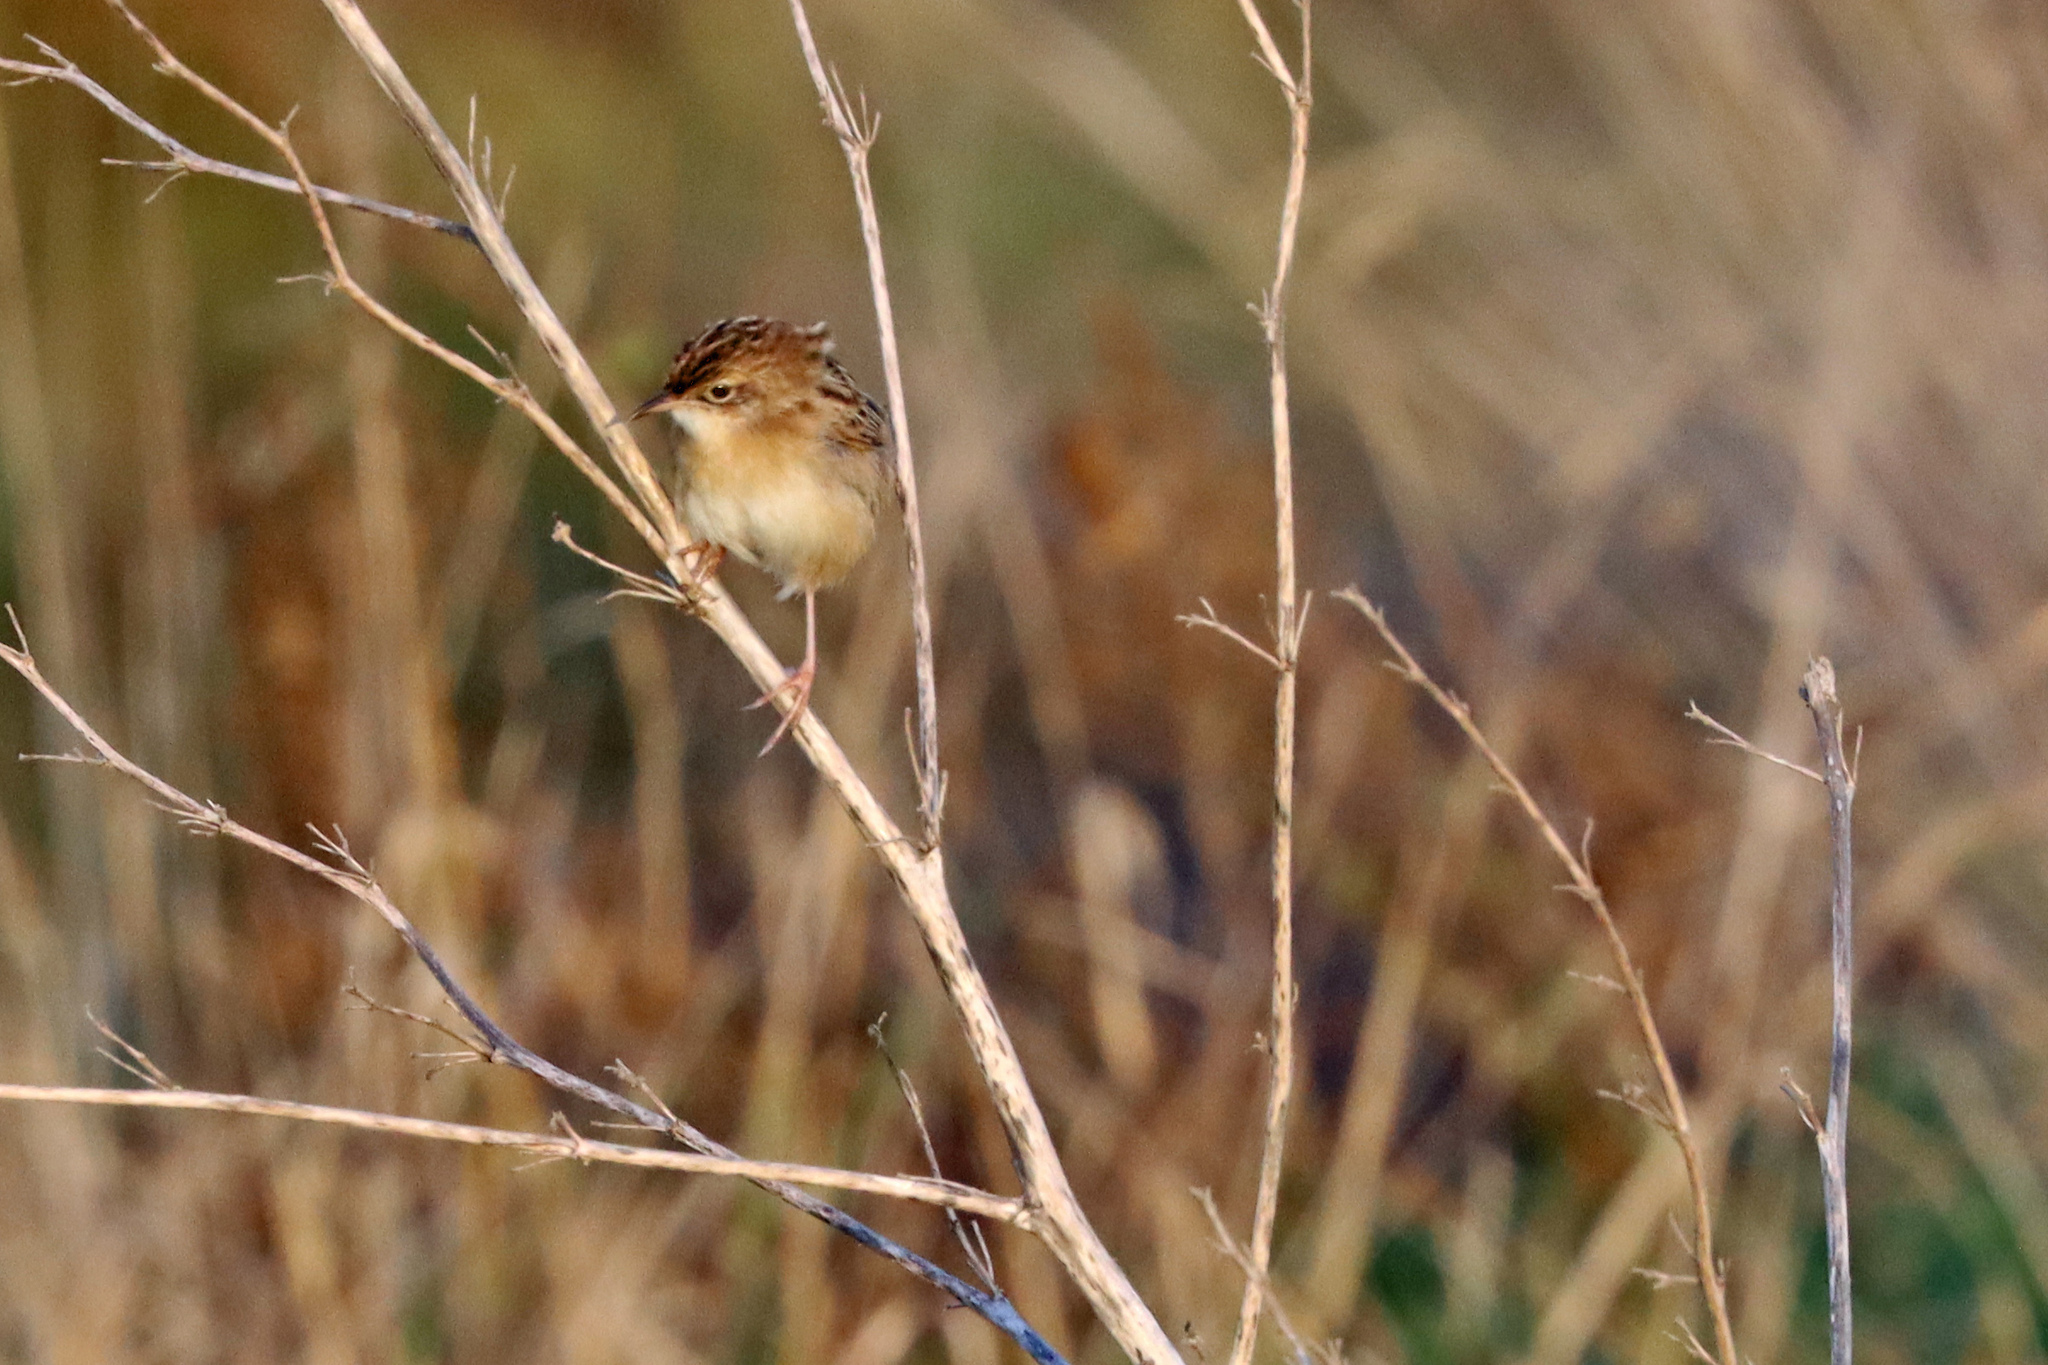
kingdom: Animalia
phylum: Chordata
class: Aves
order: Passeriformes
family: Cisticolidae
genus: Cisticola
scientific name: Cisticola juncidis
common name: Zitting cisticola
